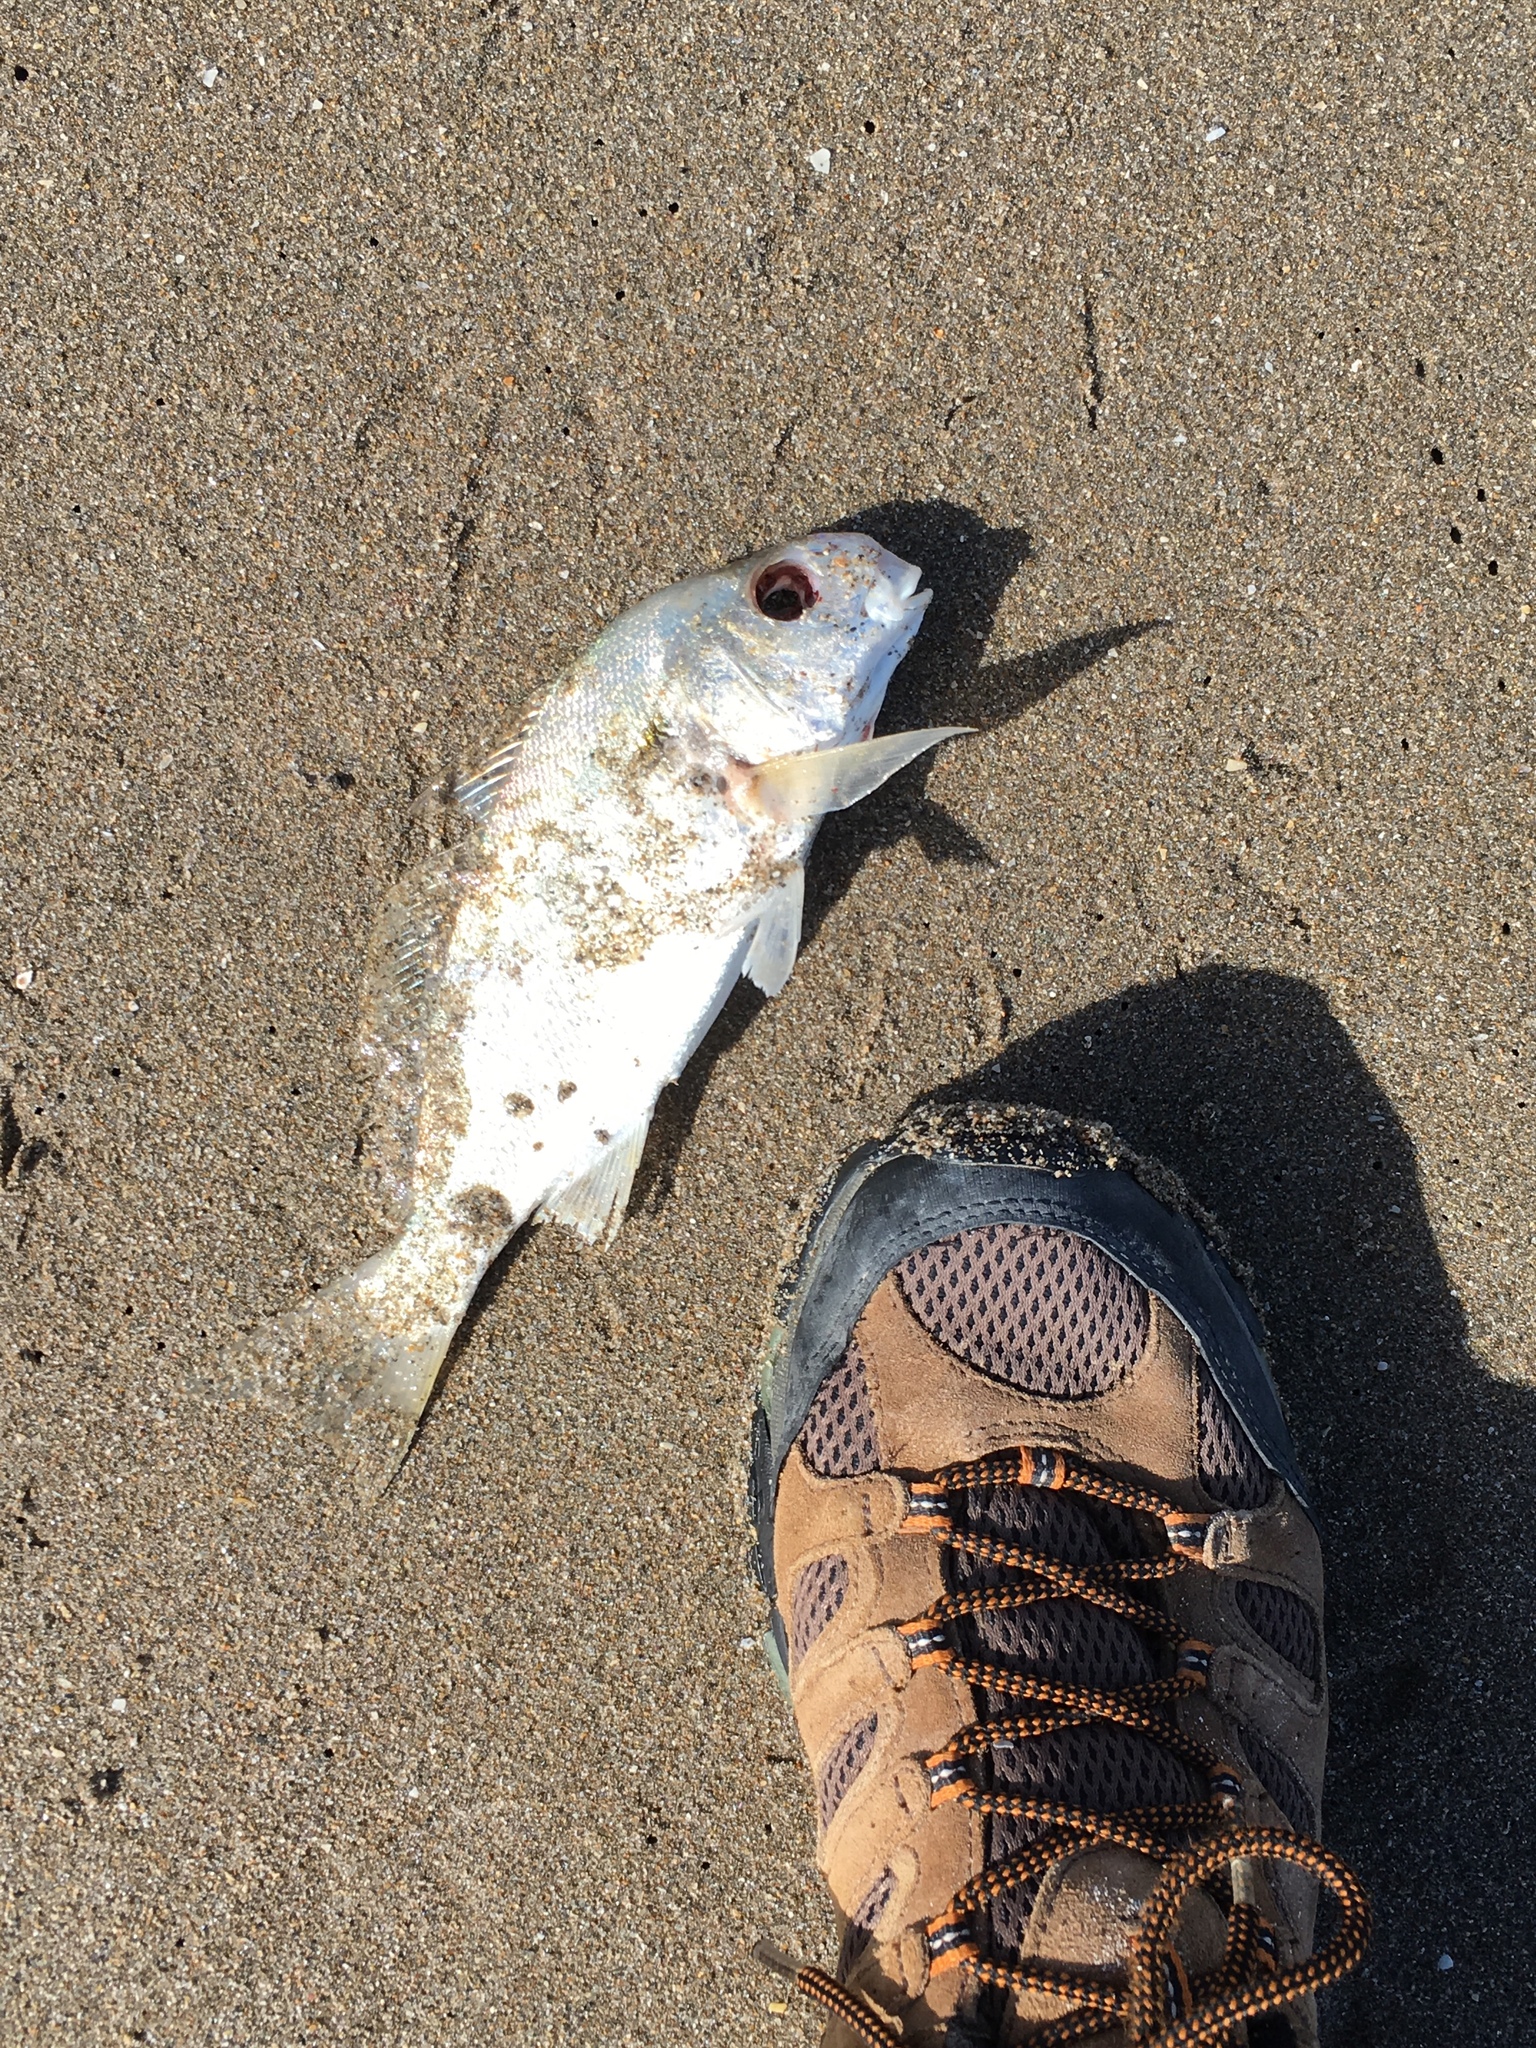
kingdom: Animalia
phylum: Chordata
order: Perciformes
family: Sciaenidae
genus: Leiostomus
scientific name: Leiostomus xanthurus
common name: Spot
